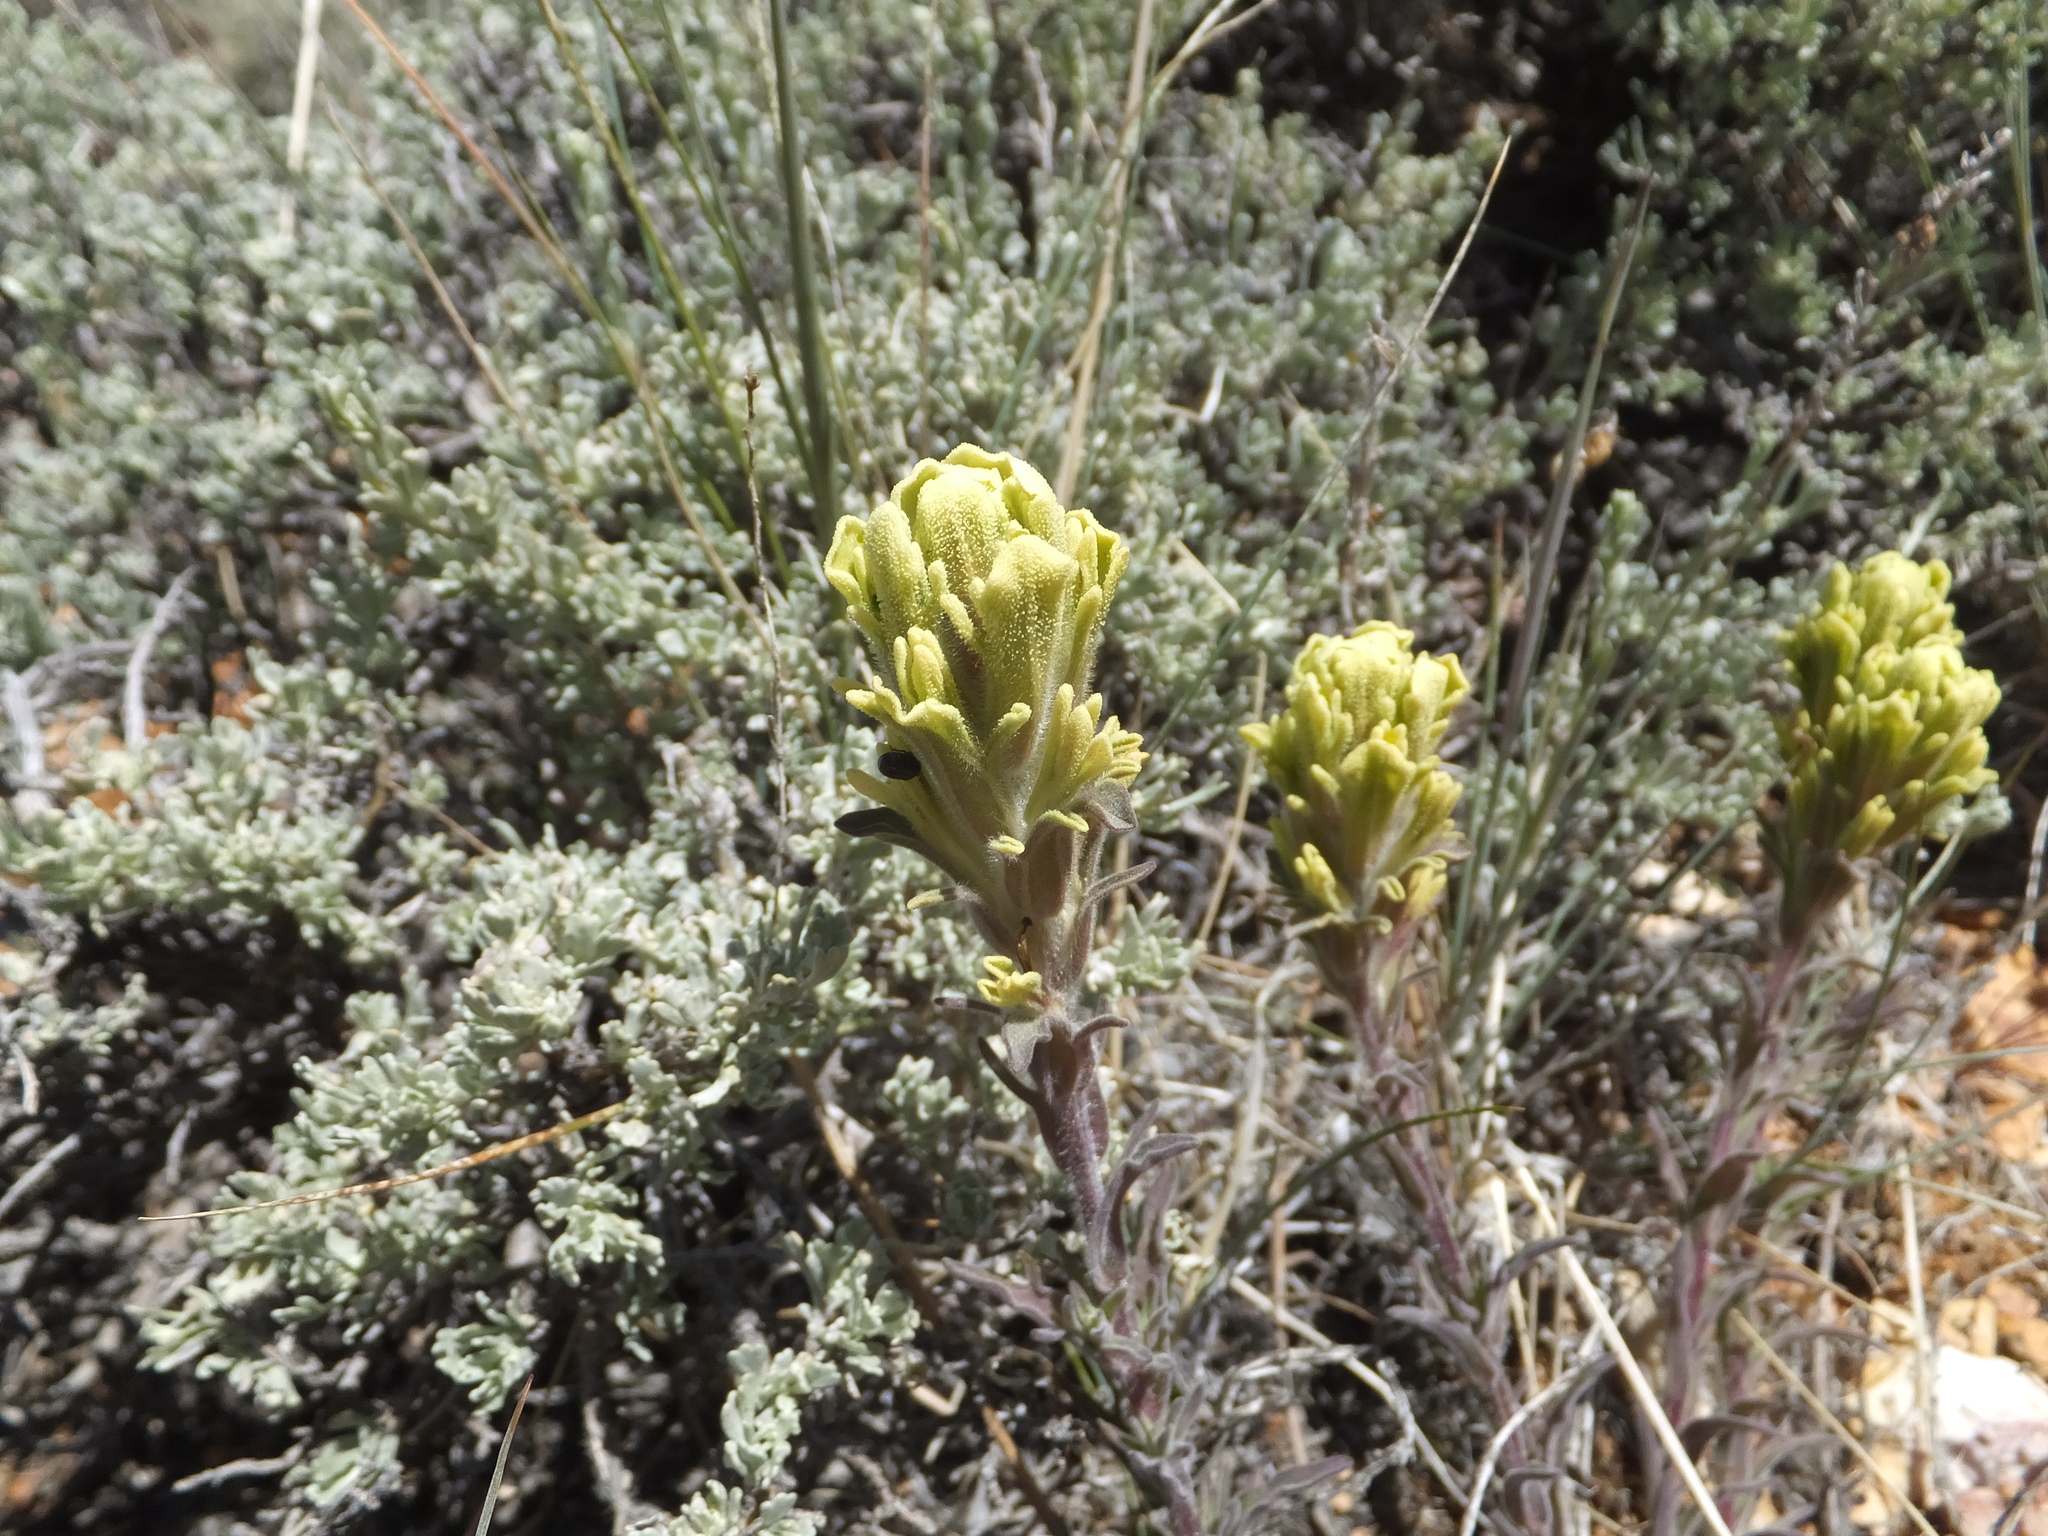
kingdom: Plantae
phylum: Tracheophyta
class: Magnoliopsida
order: Lamiales
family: Orobanchaceae
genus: Castilleja
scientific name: Castilleja cinerea
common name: Ash-gray indian paintbrush
